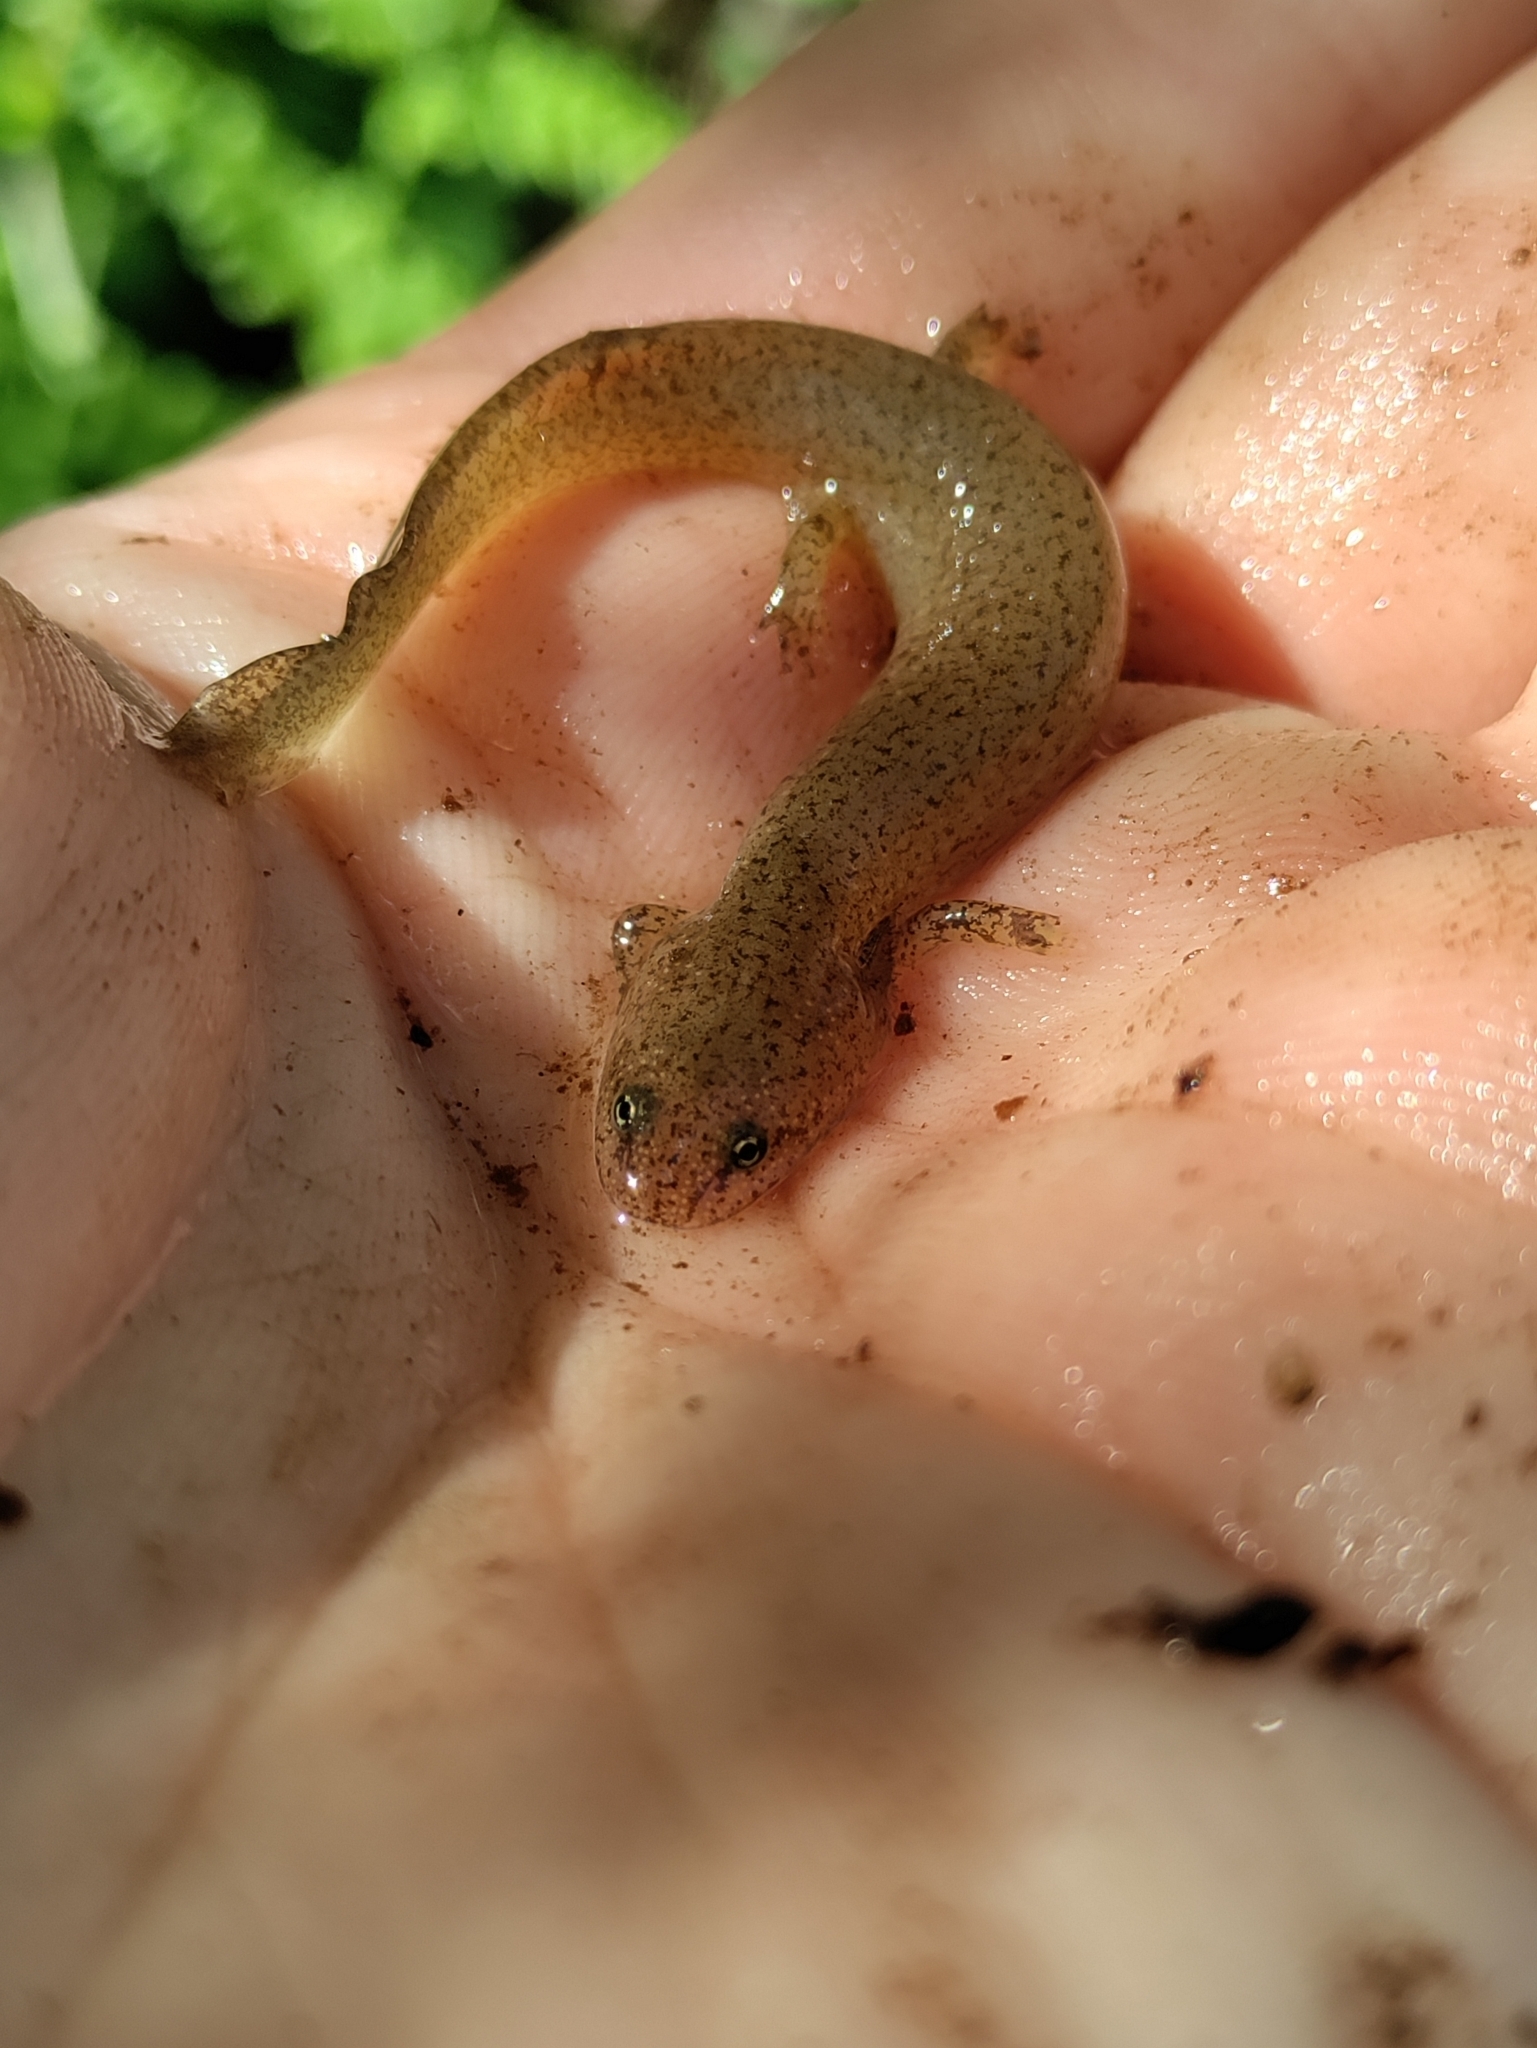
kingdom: Animalia
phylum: Chordata
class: Amphibia
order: Caudata
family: Plethodontidae
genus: Pseudotriton
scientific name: Pseudotriton ruber
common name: Red salamander
